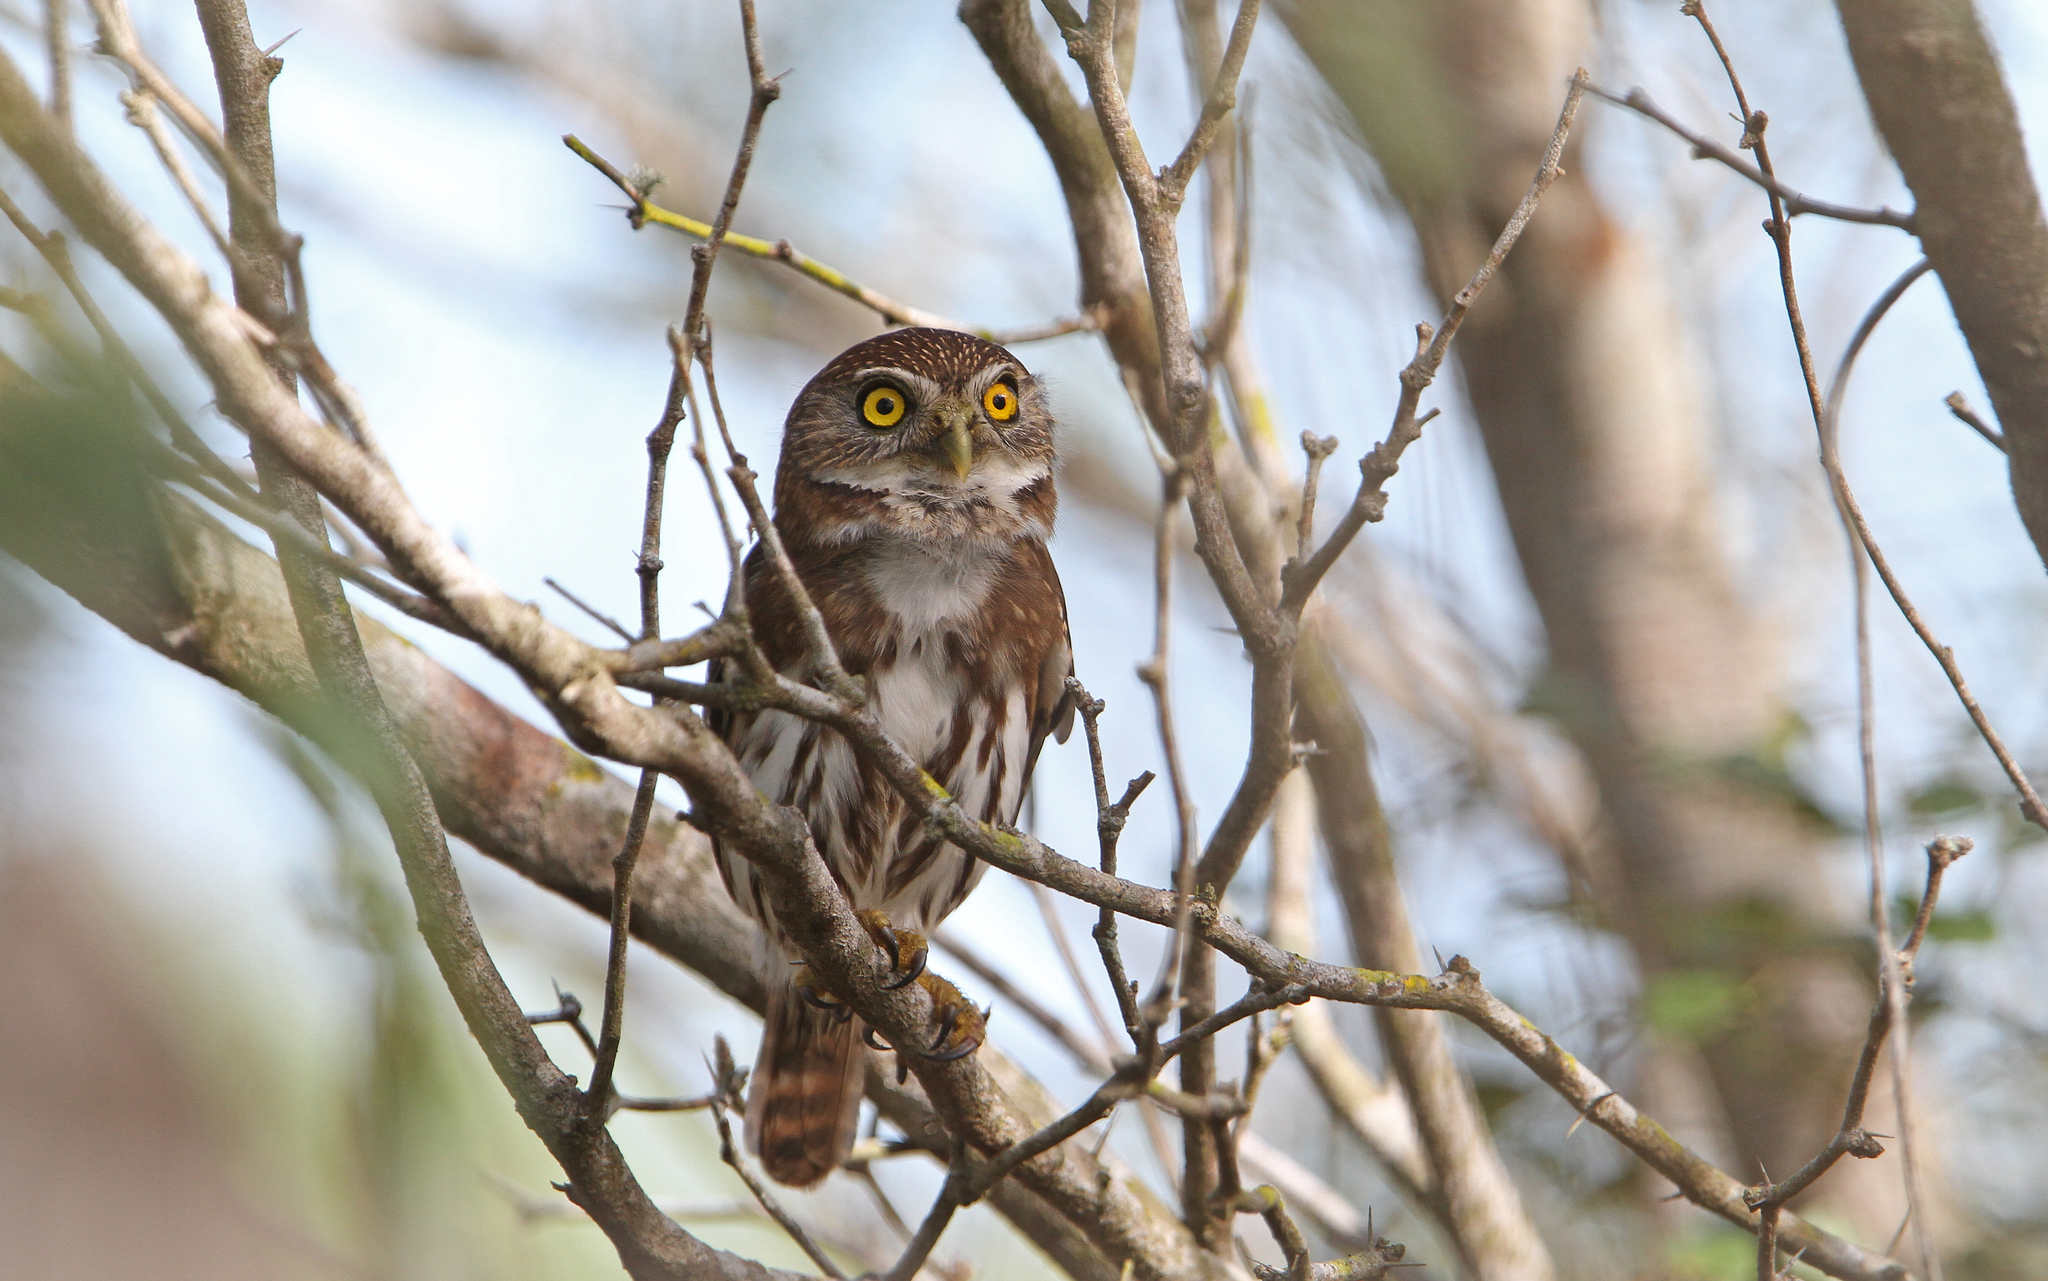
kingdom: Animalia
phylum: Chordata
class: Aves
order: Strigiformes
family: Strigidae
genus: Glaucidium
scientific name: Glaucidium brasilianum
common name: Ferruginous pygmy-owl
